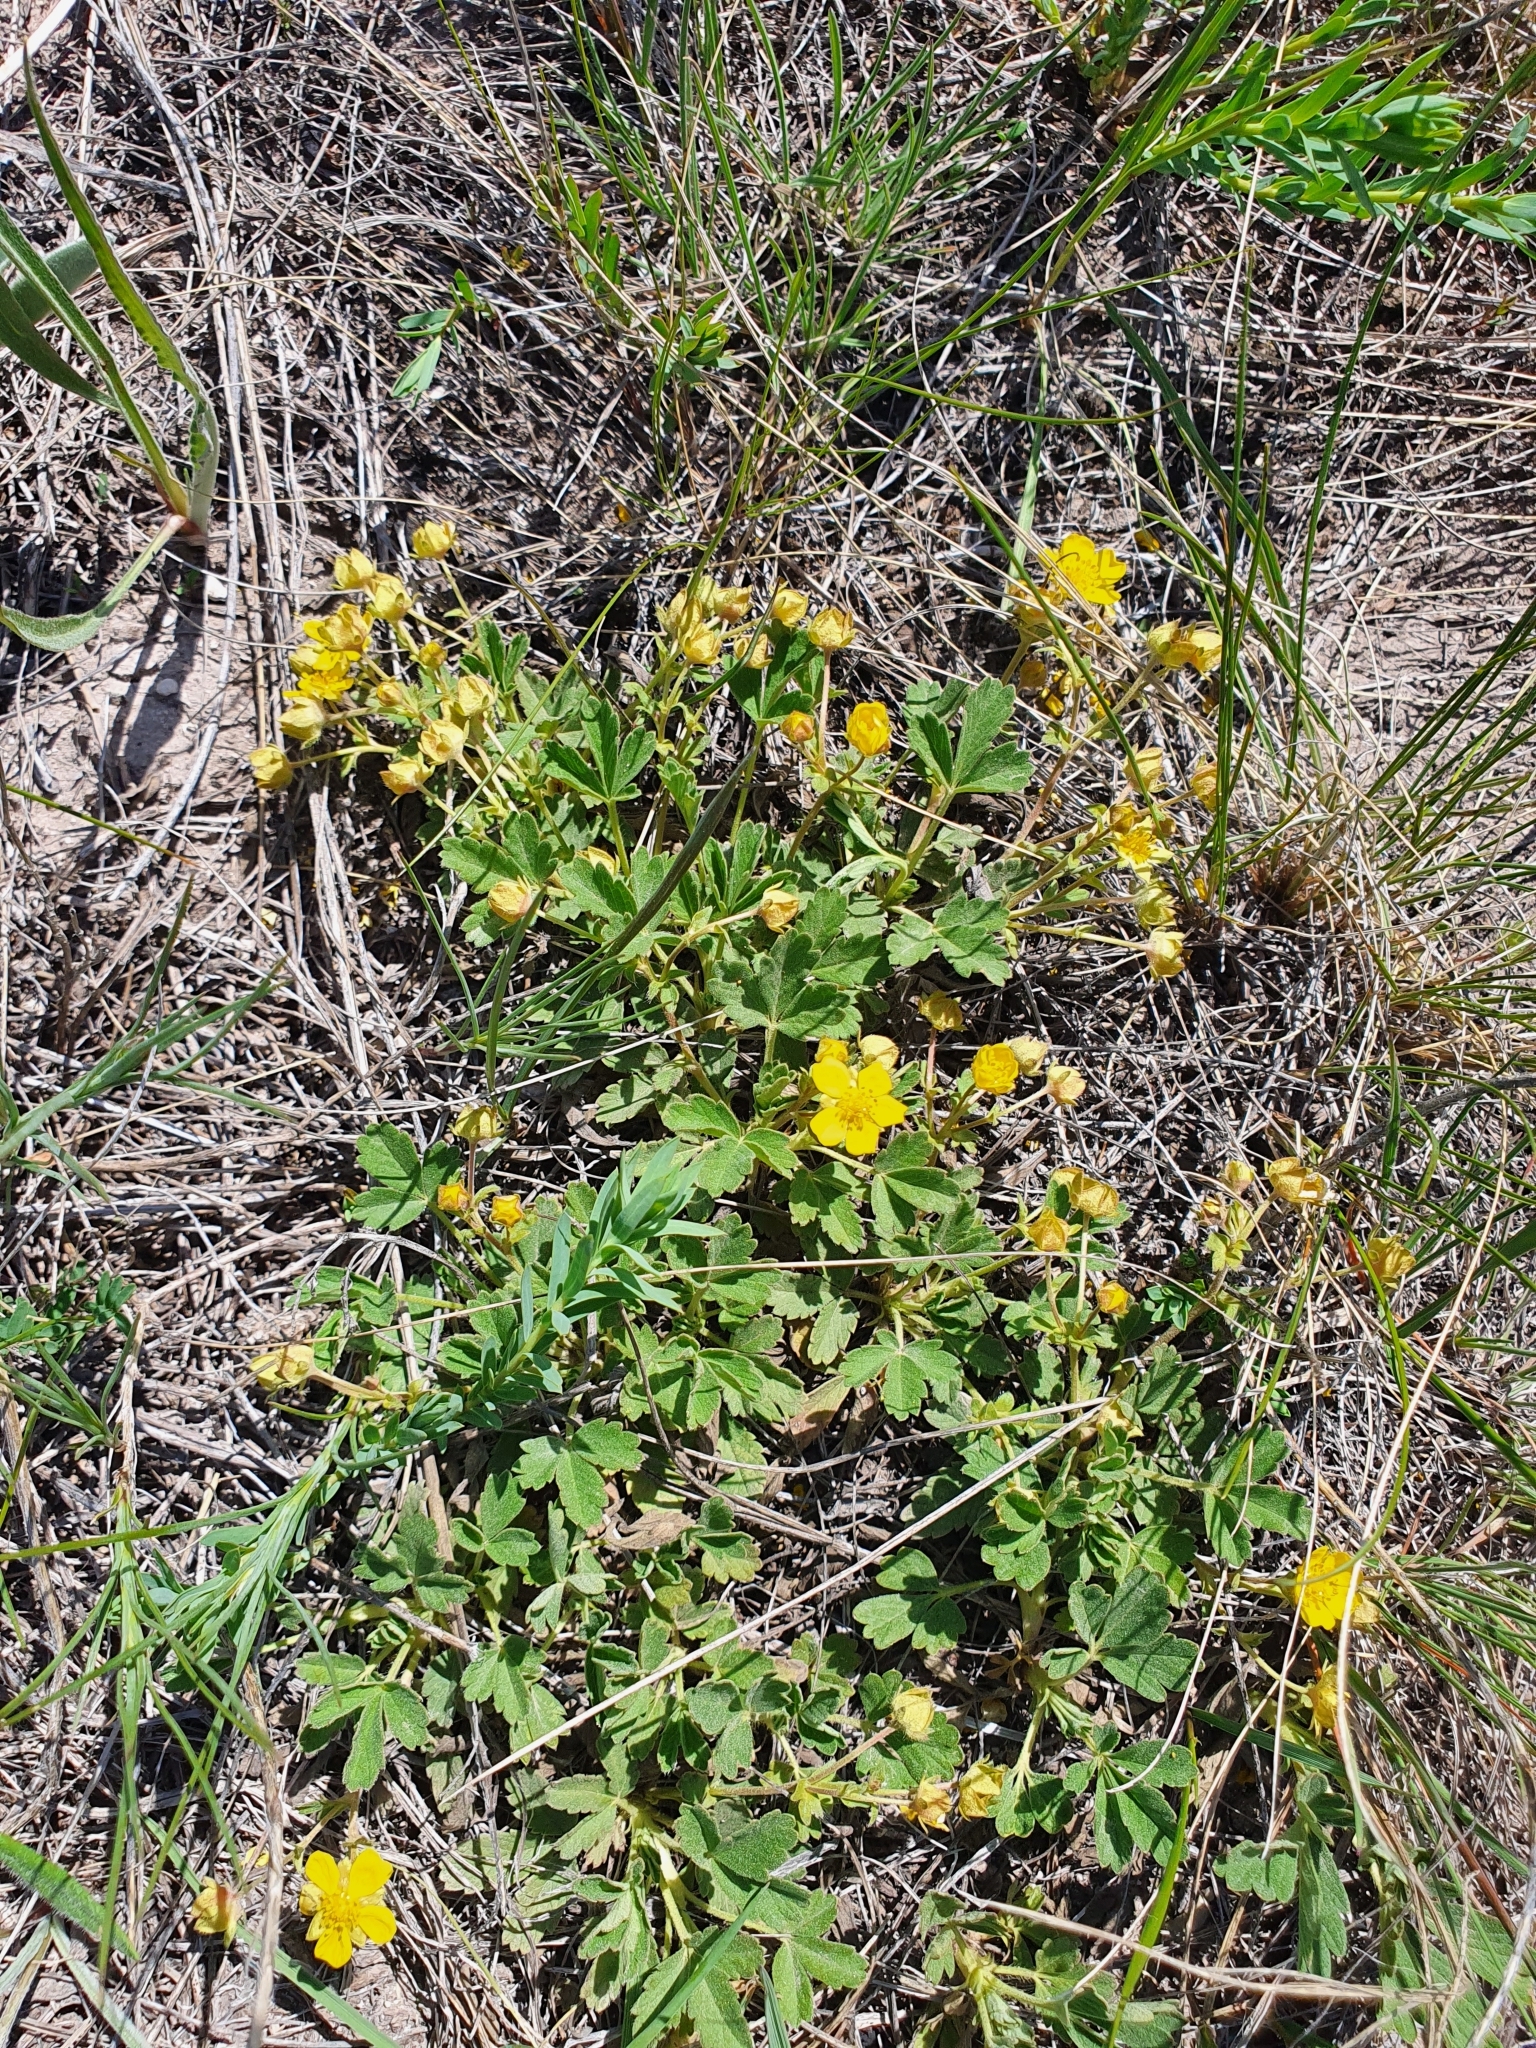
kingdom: Plantae
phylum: Tracheophyta
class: Magnoliopsida
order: Rosales
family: Rosaceae
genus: Potentilla
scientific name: Potentilla incana
